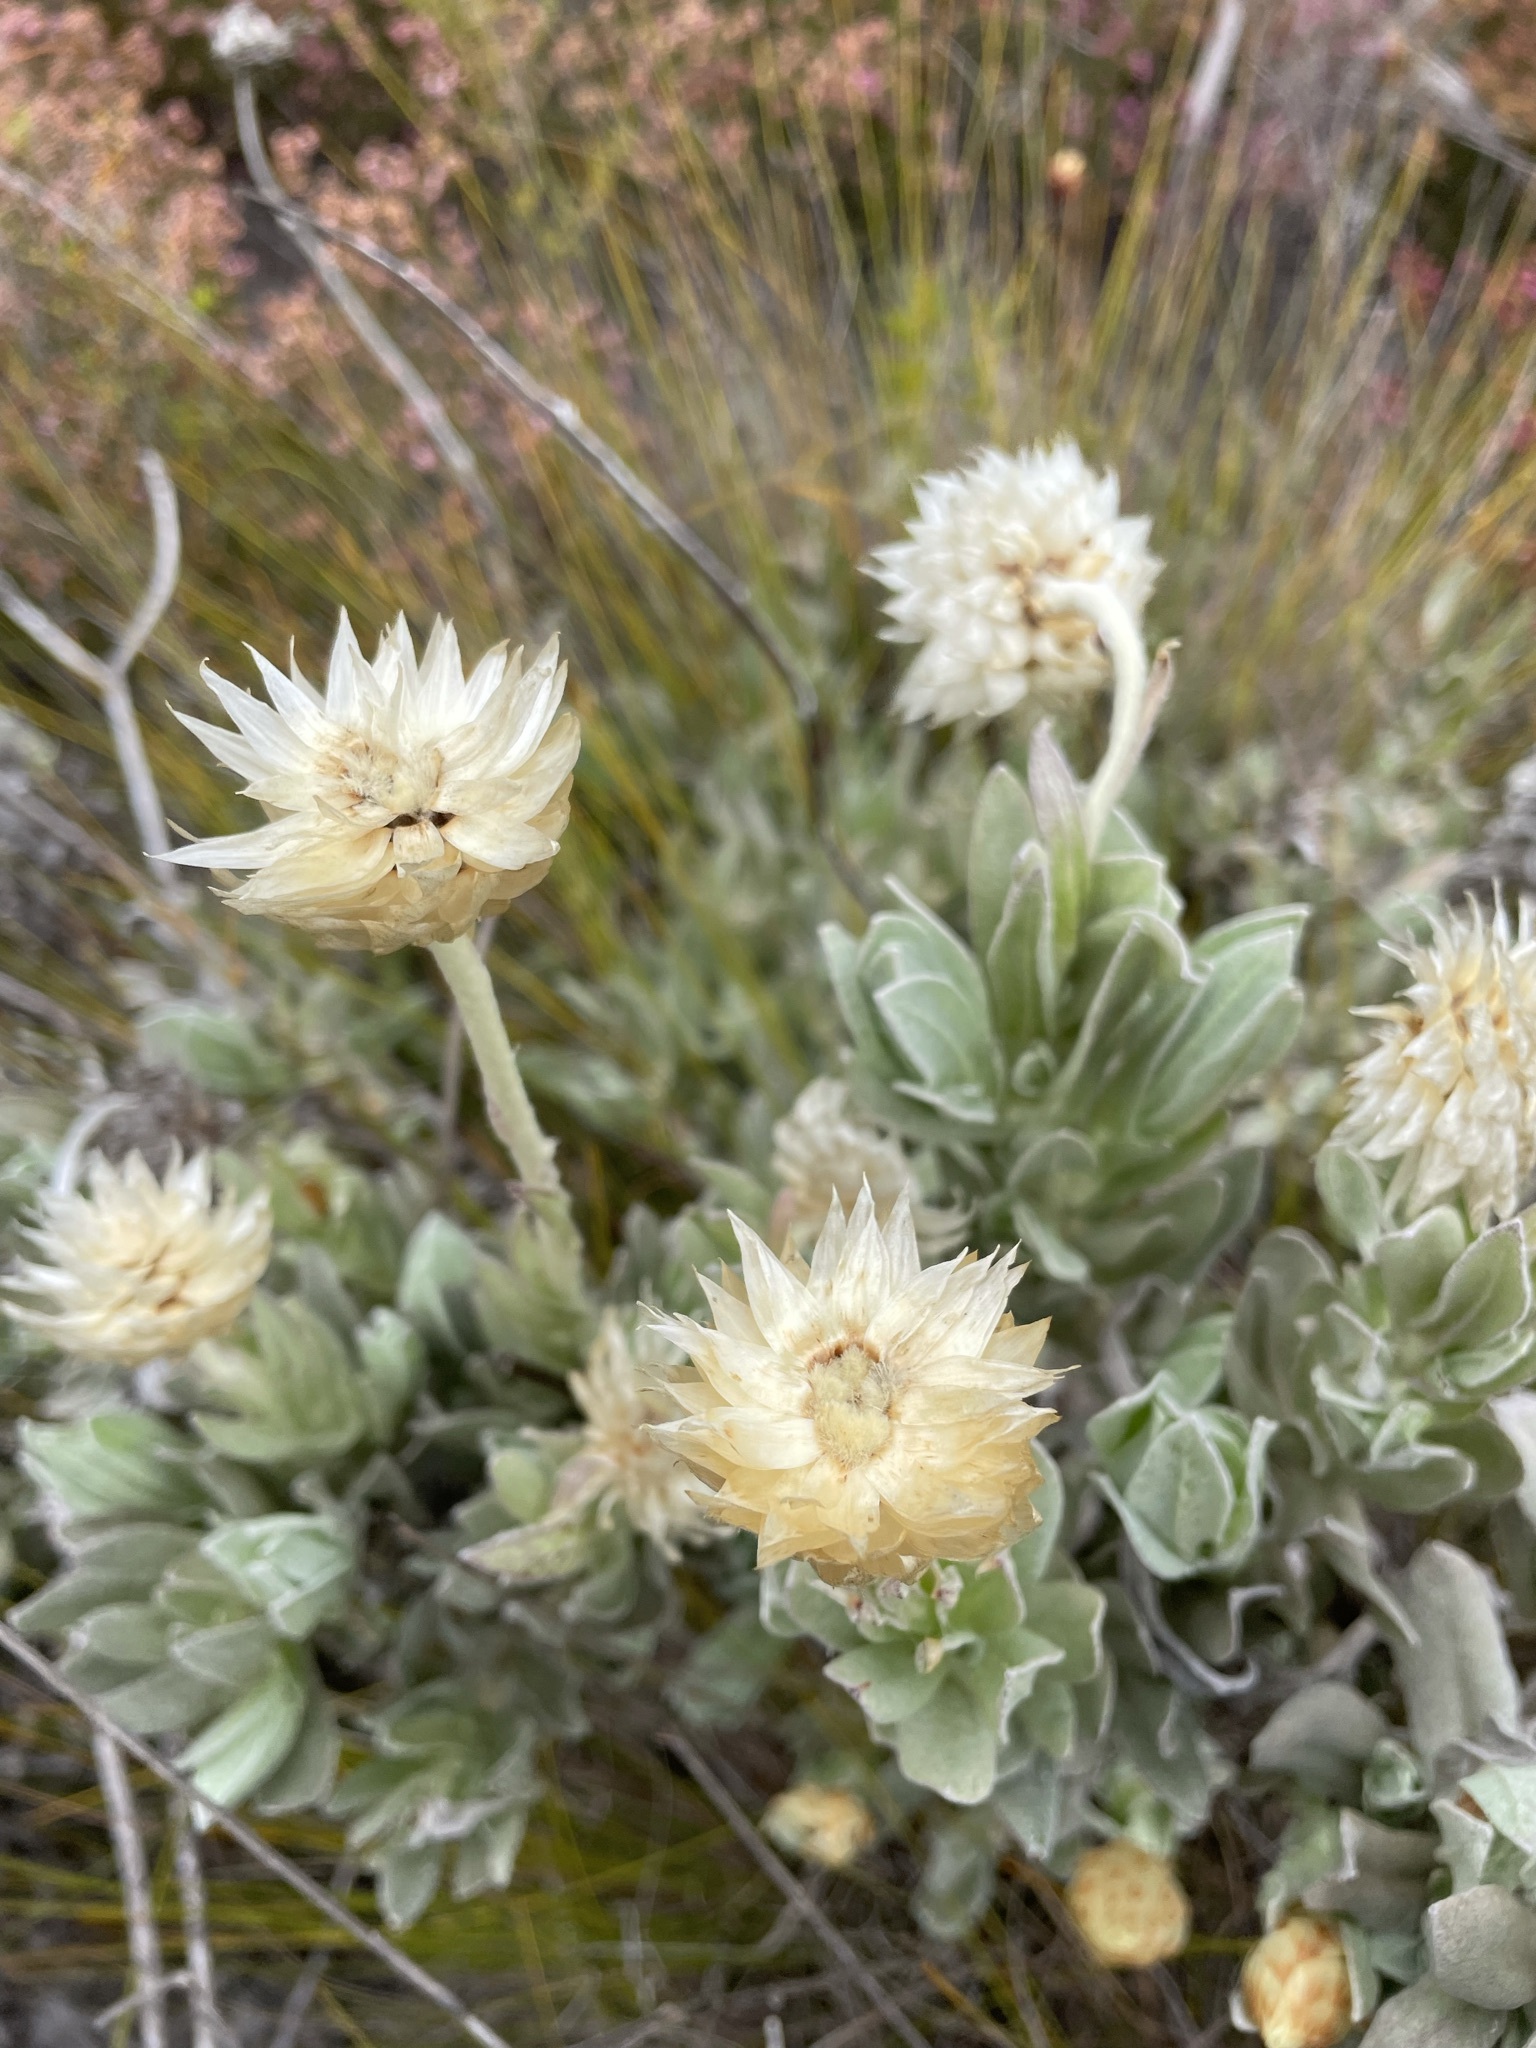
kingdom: Plantae
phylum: Tracheophyta
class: Magnoliopsida
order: Asterales
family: Asteraceae
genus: Syncarpha
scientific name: Syncarpha speciosissima
